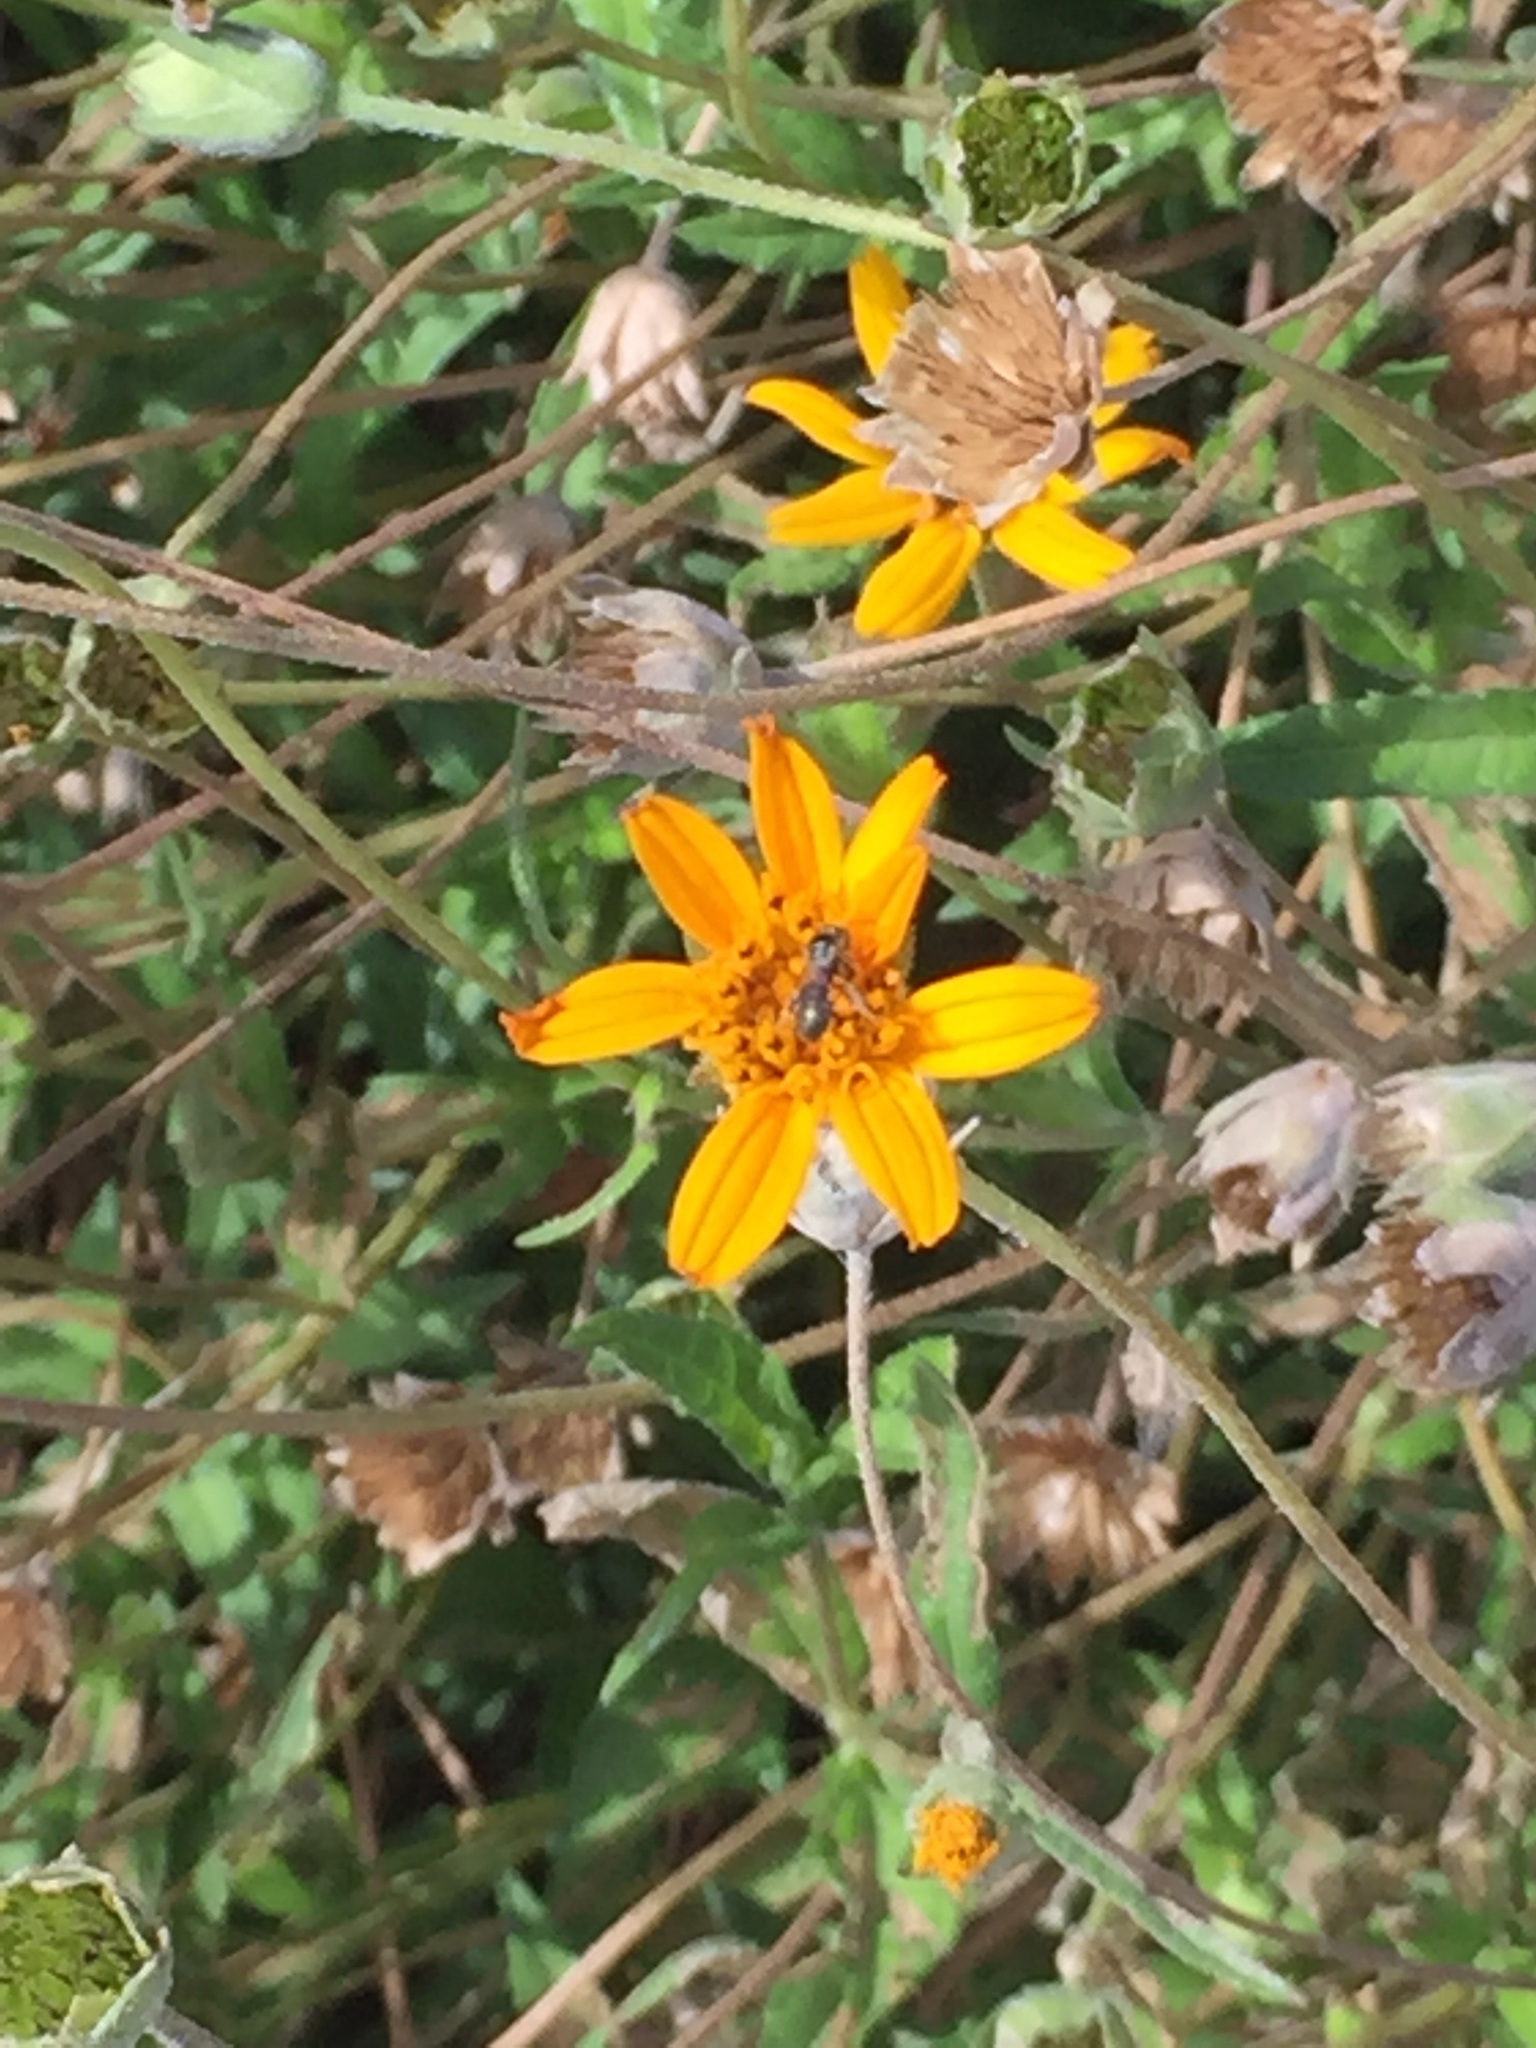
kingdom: Animalia
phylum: Arthropoda
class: Insecta
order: Hymenoptera
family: Apidae
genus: Ceratina
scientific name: Ceratina
